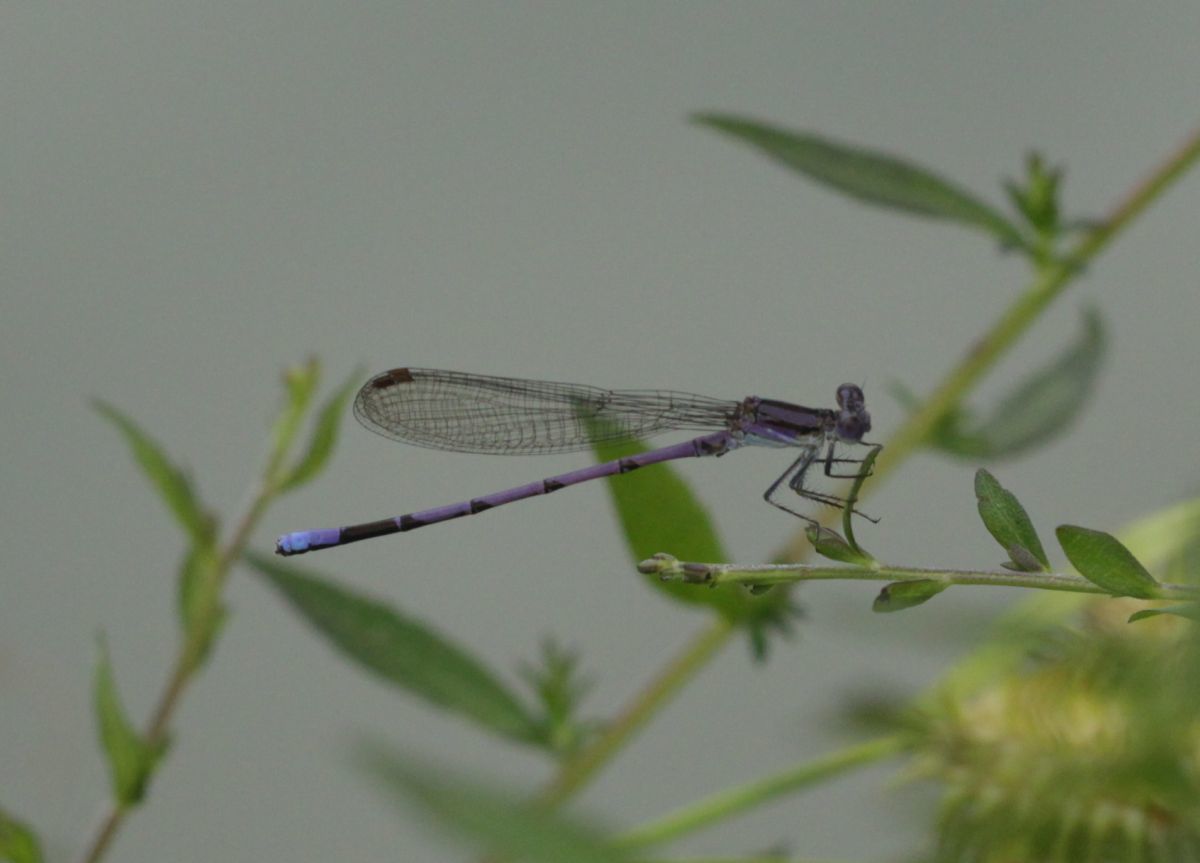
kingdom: Animalia
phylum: Arthropoda
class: Insecta
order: Odonata
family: Coenagrionidae
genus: Argia
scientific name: Argia fumipennis
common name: Variable dancer
